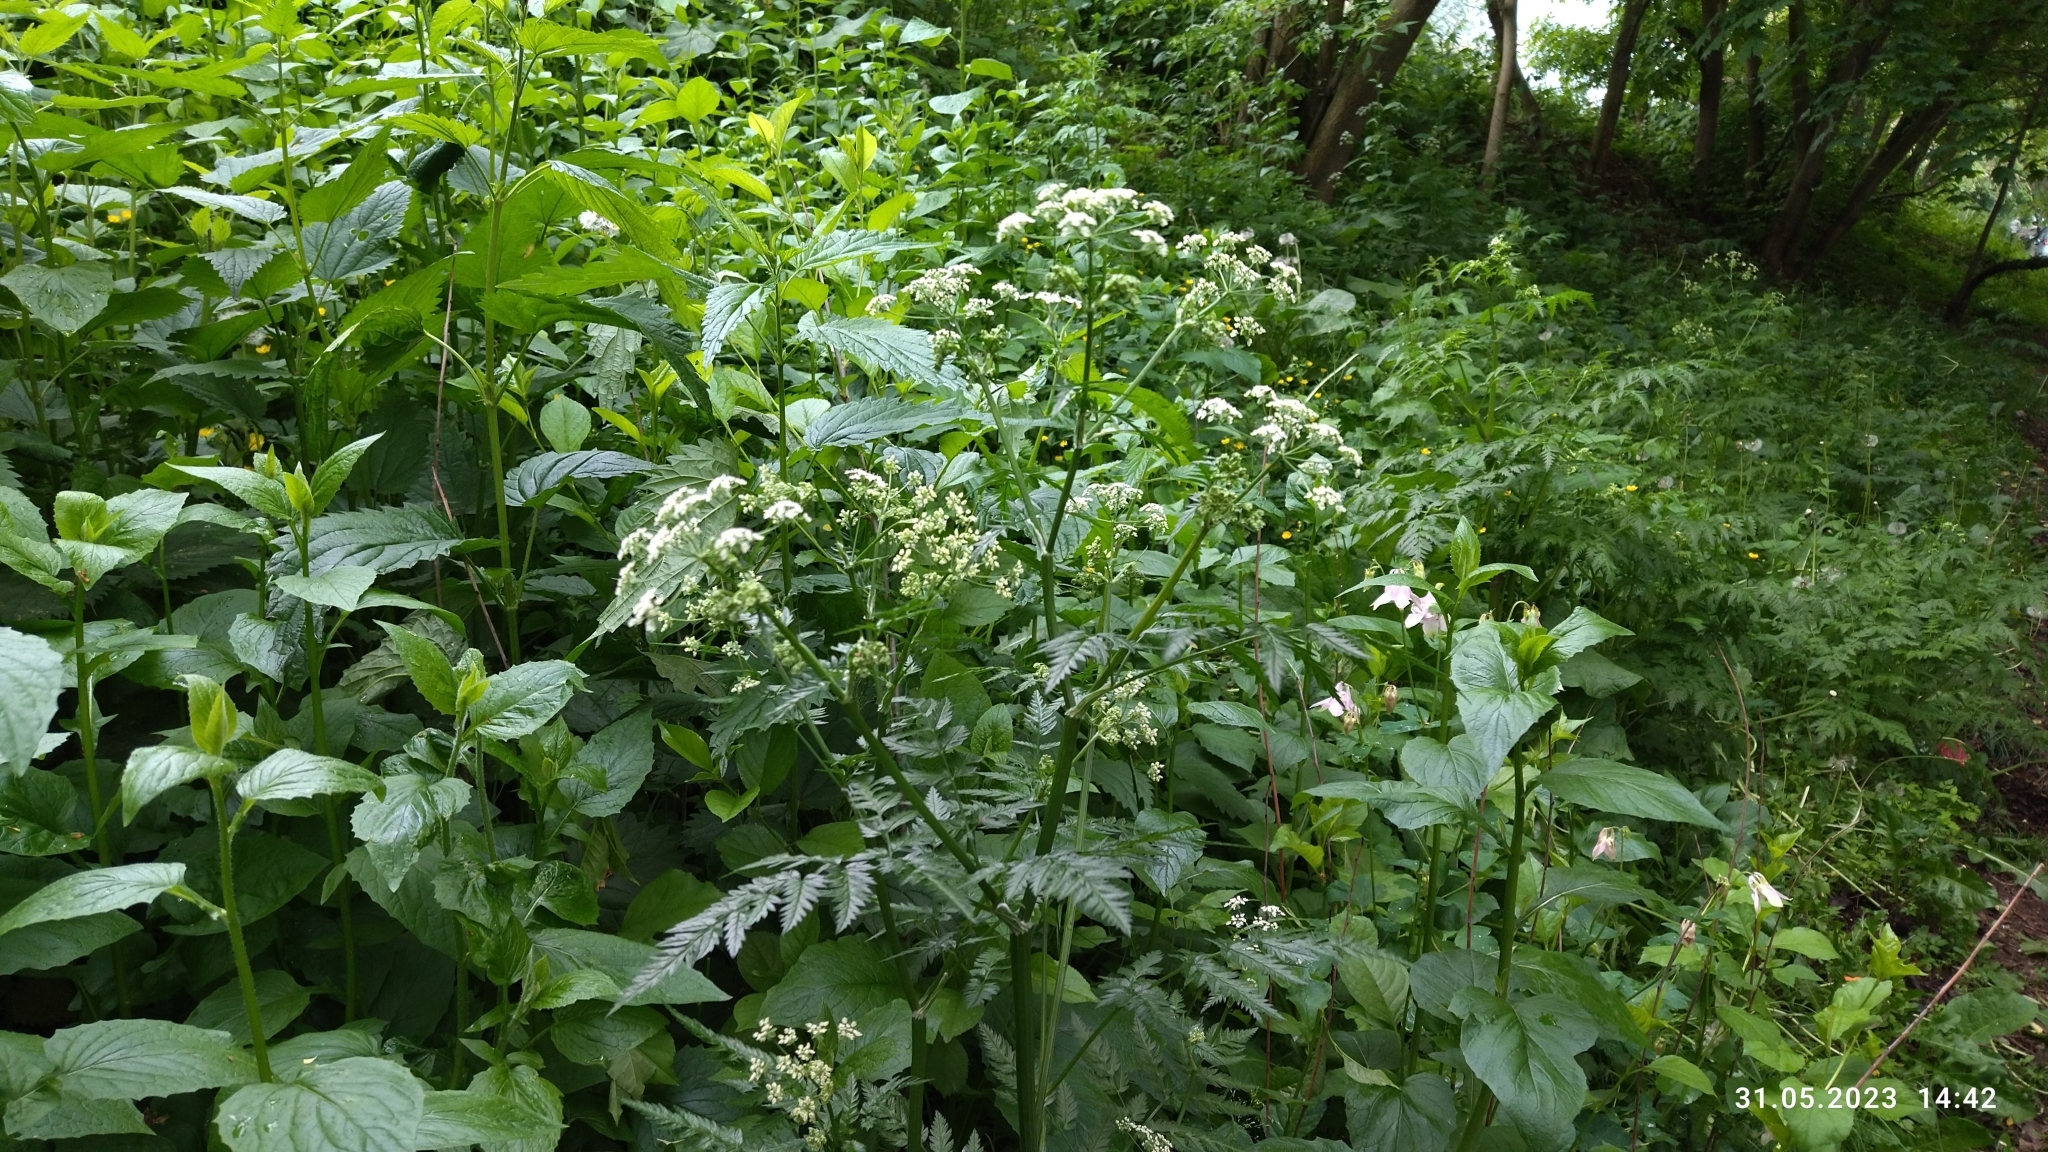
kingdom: Plantae
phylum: Tracheophyta
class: Magnoliopsida
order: Apiales
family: Apiaceae
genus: Anthriscus
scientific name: Anthriscus sylvestris
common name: Cow parsley
